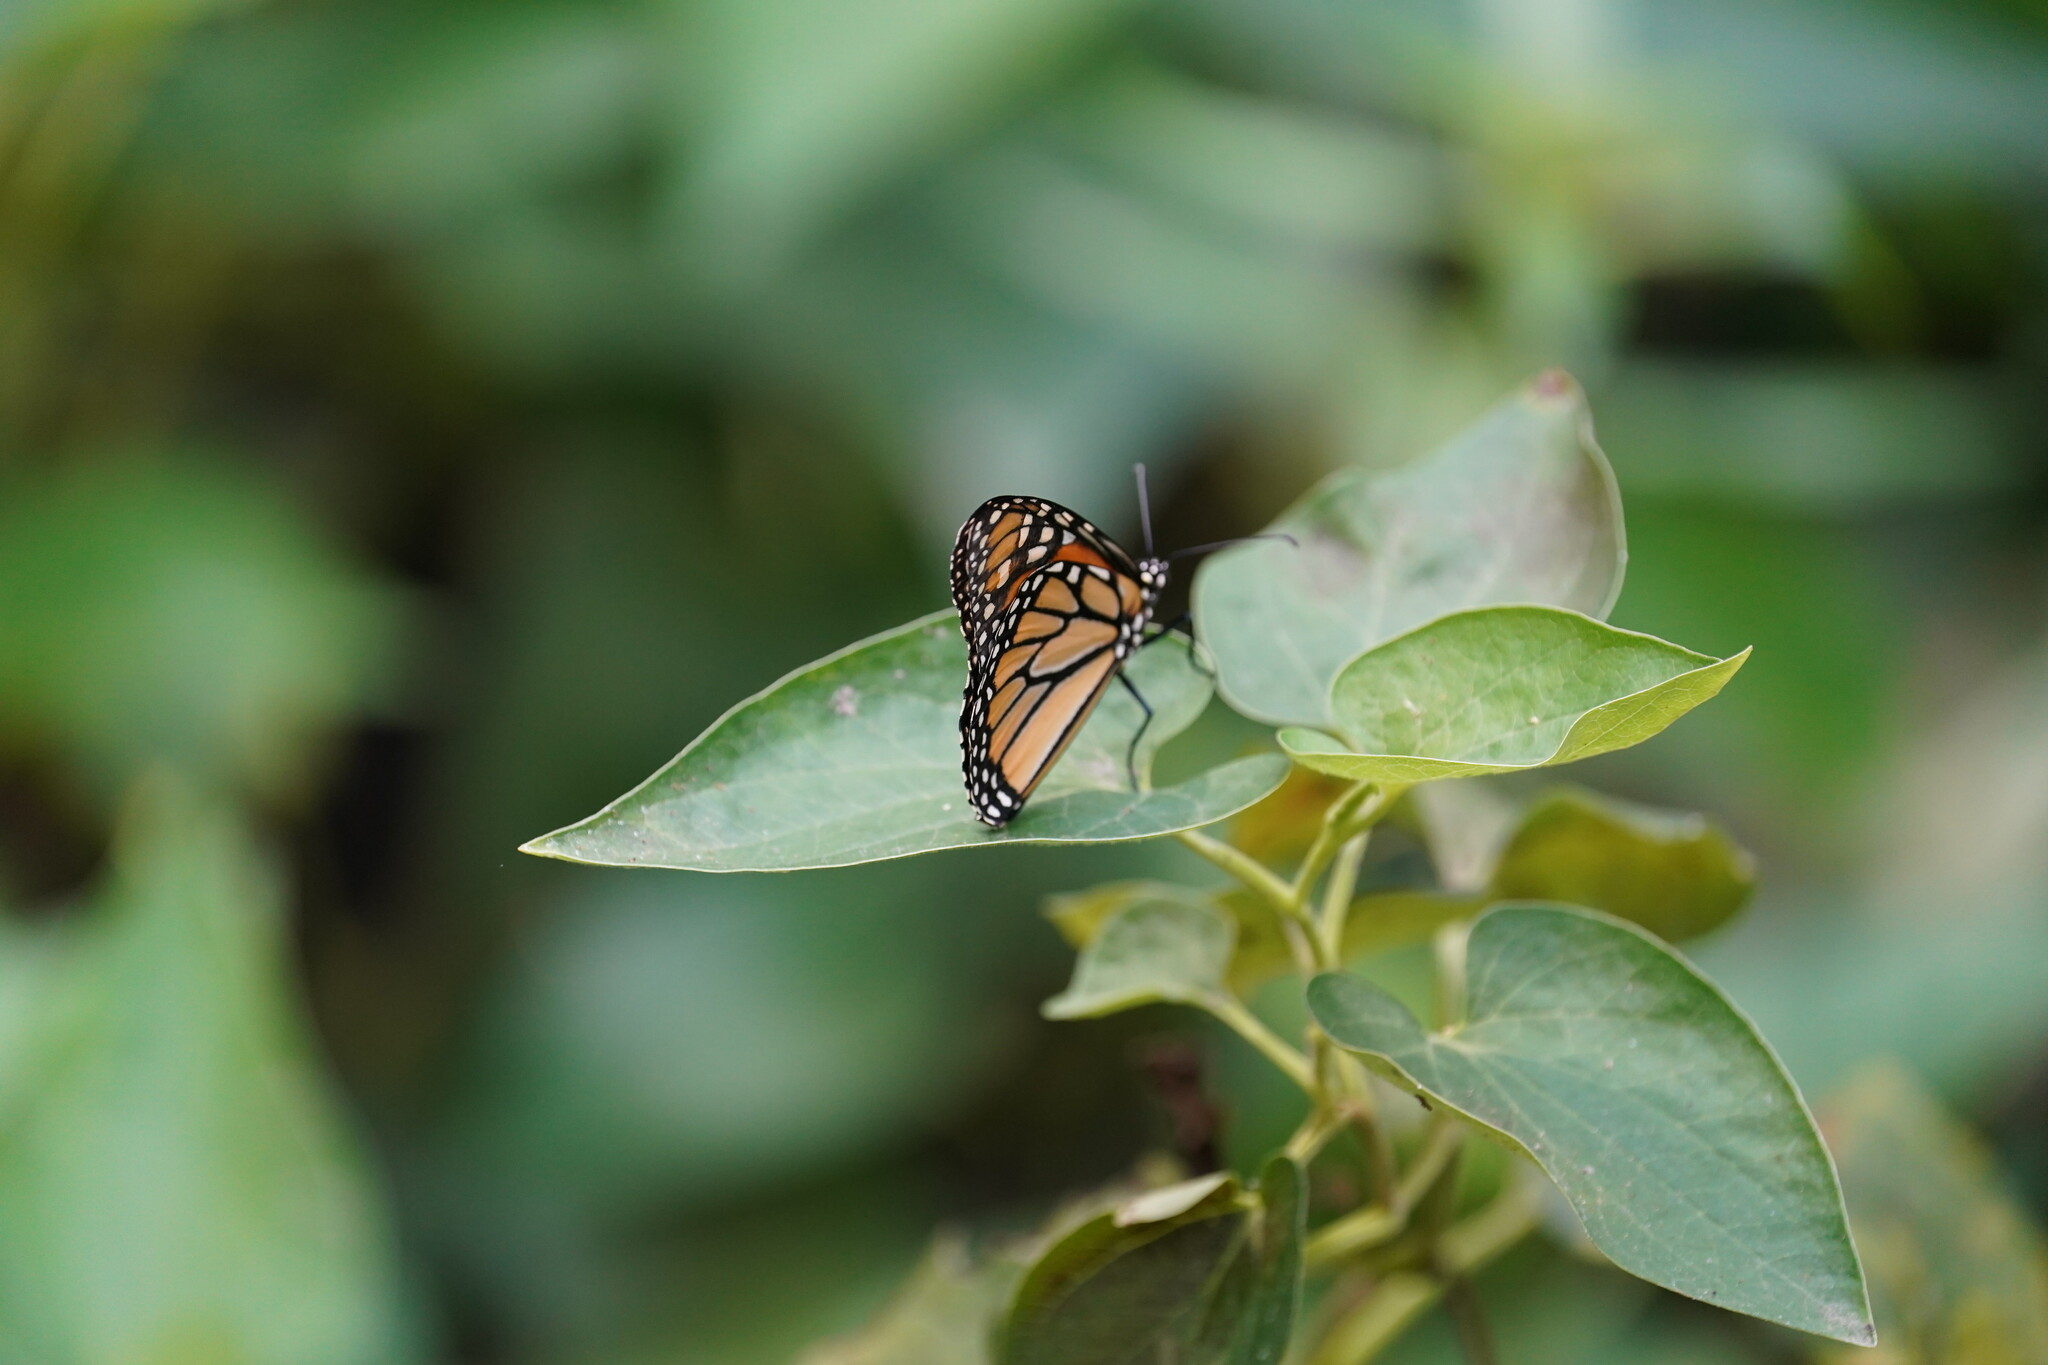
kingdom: Animalia
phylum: Arthropoda
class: Insecta
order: Lepidoptera
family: Nymphalidae
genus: Danaus
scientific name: Danaus plexippus
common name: Monarch
